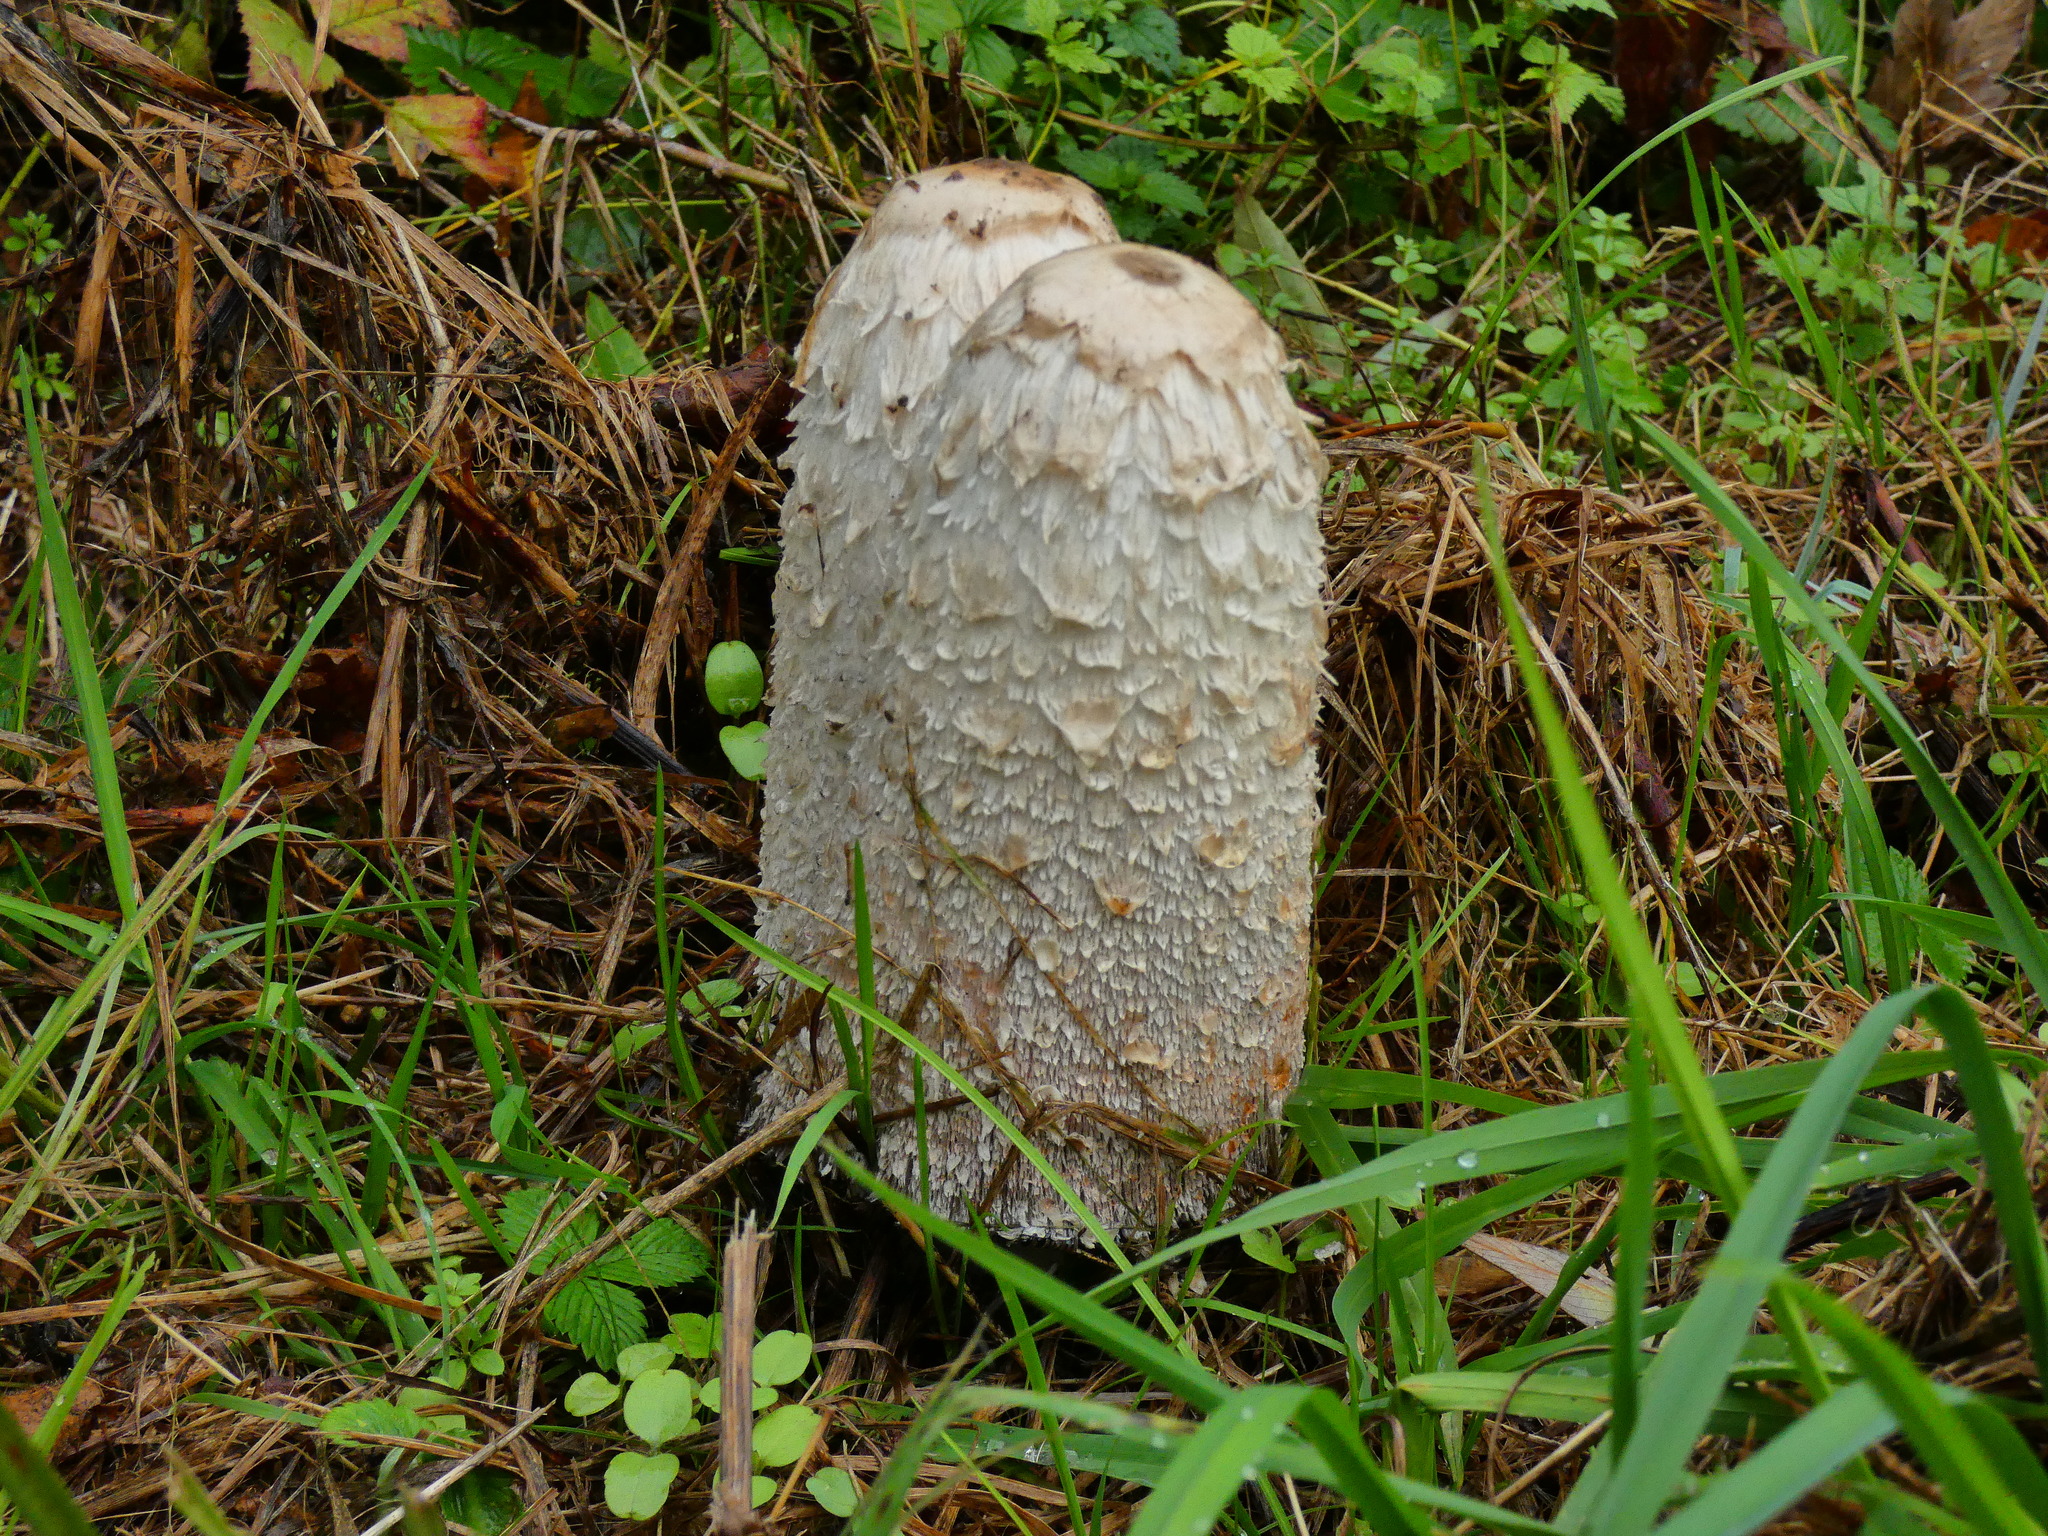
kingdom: Fungi
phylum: Basidiomycota
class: Agaricomycetes
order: Agaricales
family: Agaricaceae
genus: Coprinus
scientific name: Coprinus comatus
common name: Lawyer's wig
